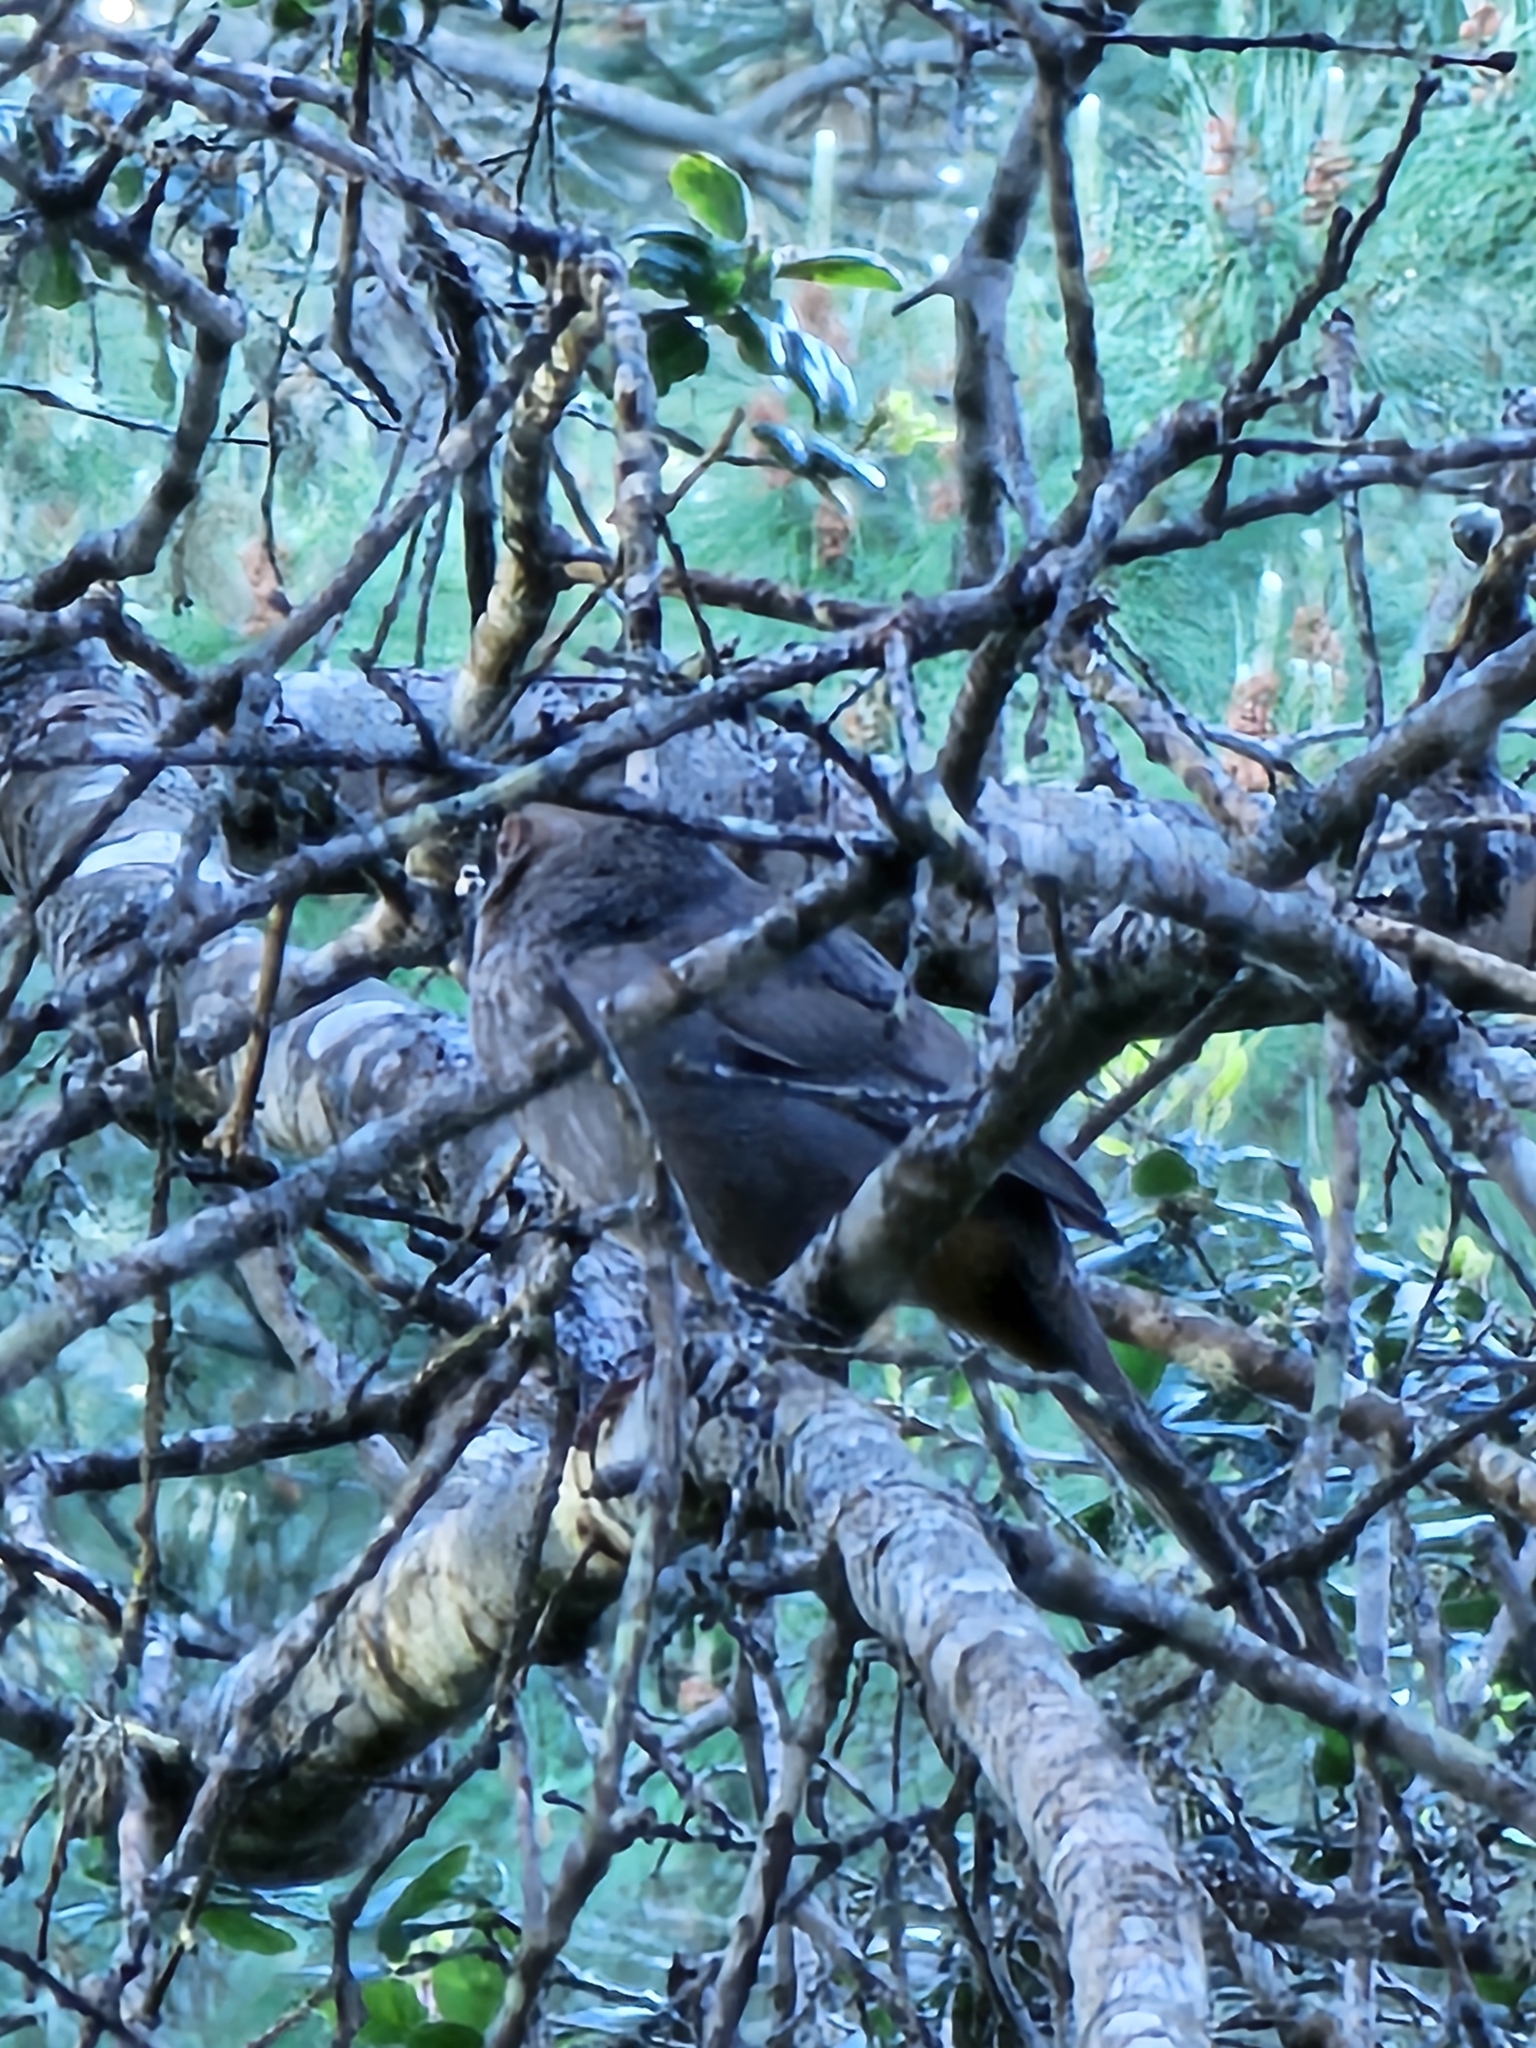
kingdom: Animalia
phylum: Chordata
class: Aves
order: Passeriformes
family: Passerellidae
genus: Melozone
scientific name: Melozone crissalis
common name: California towhee
